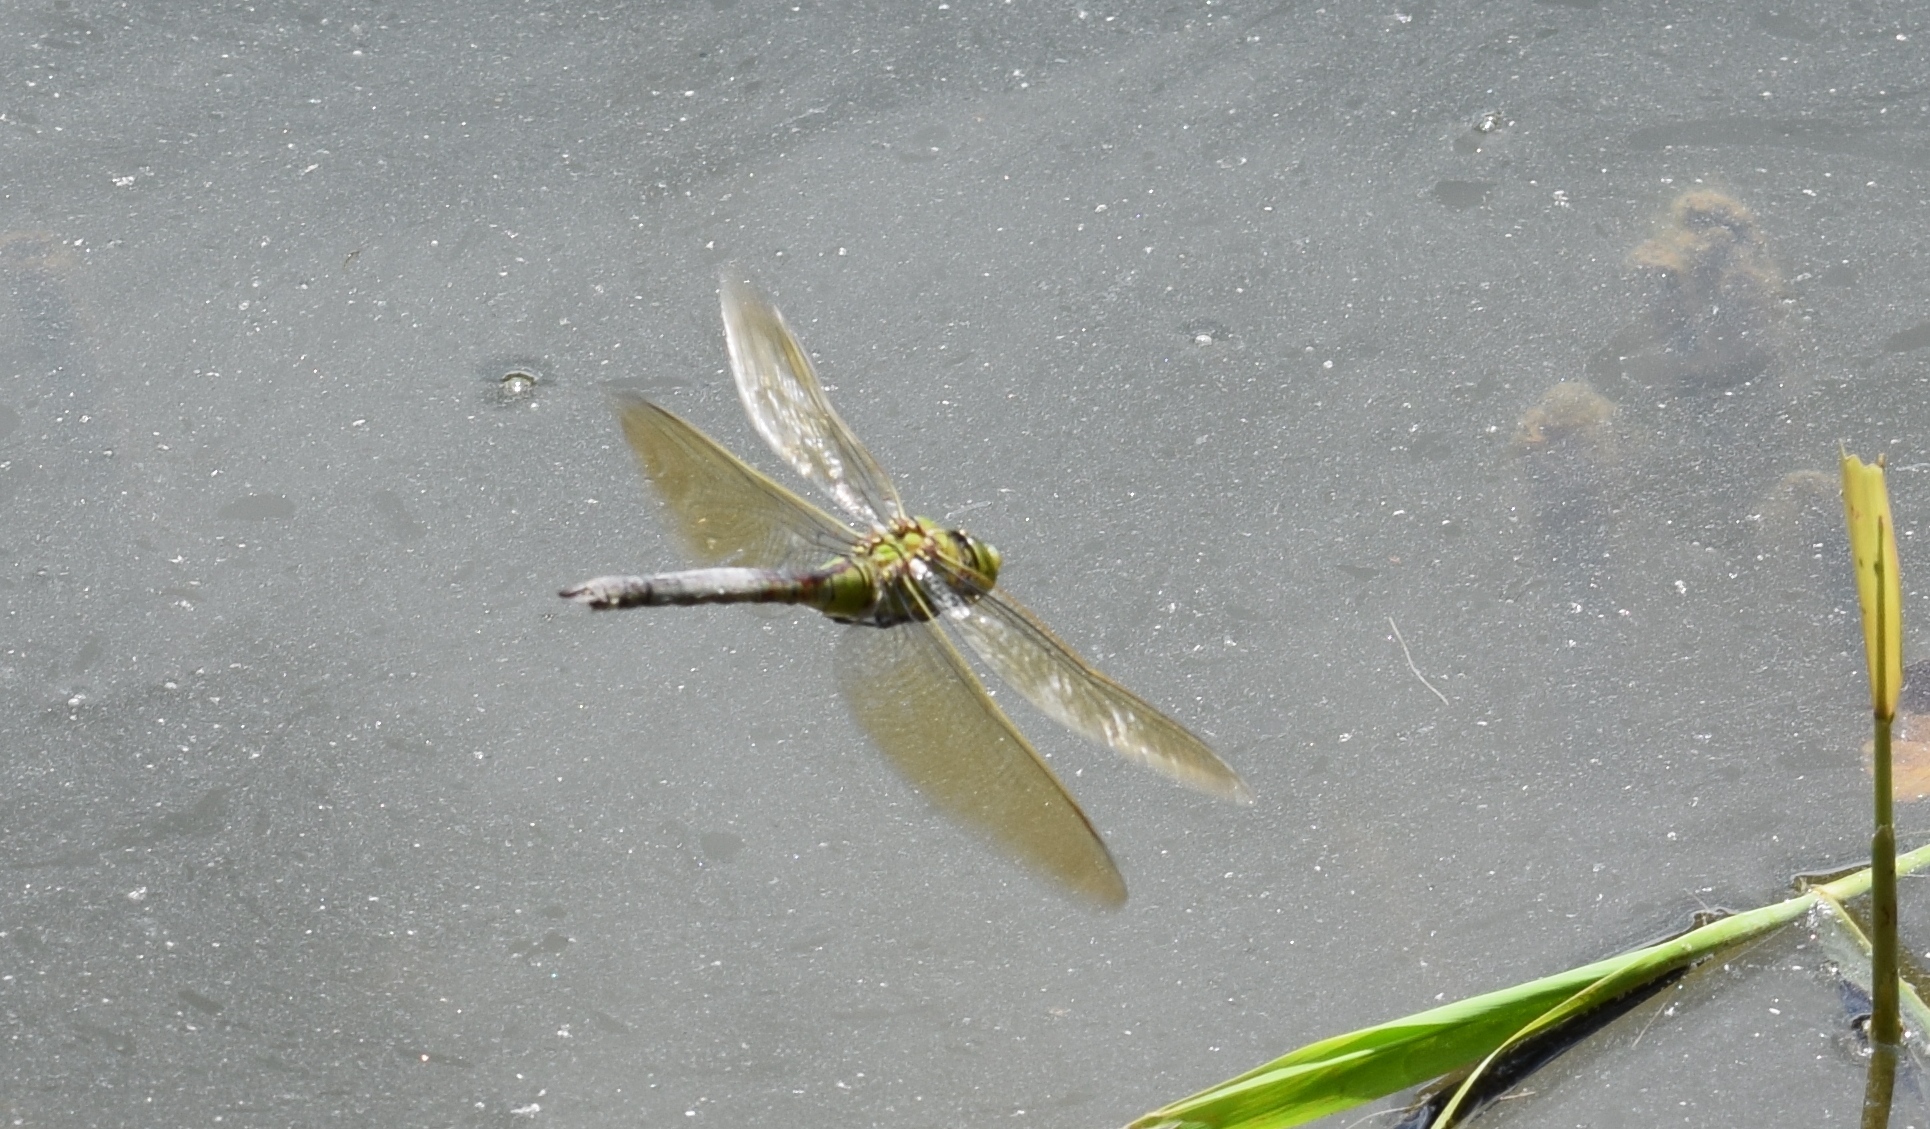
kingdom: Animalia
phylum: Arthropoda
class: Insecta
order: Odonata
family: Aeshnidae
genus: Anax
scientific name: Anax imperator
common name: Emperor dragonfly
